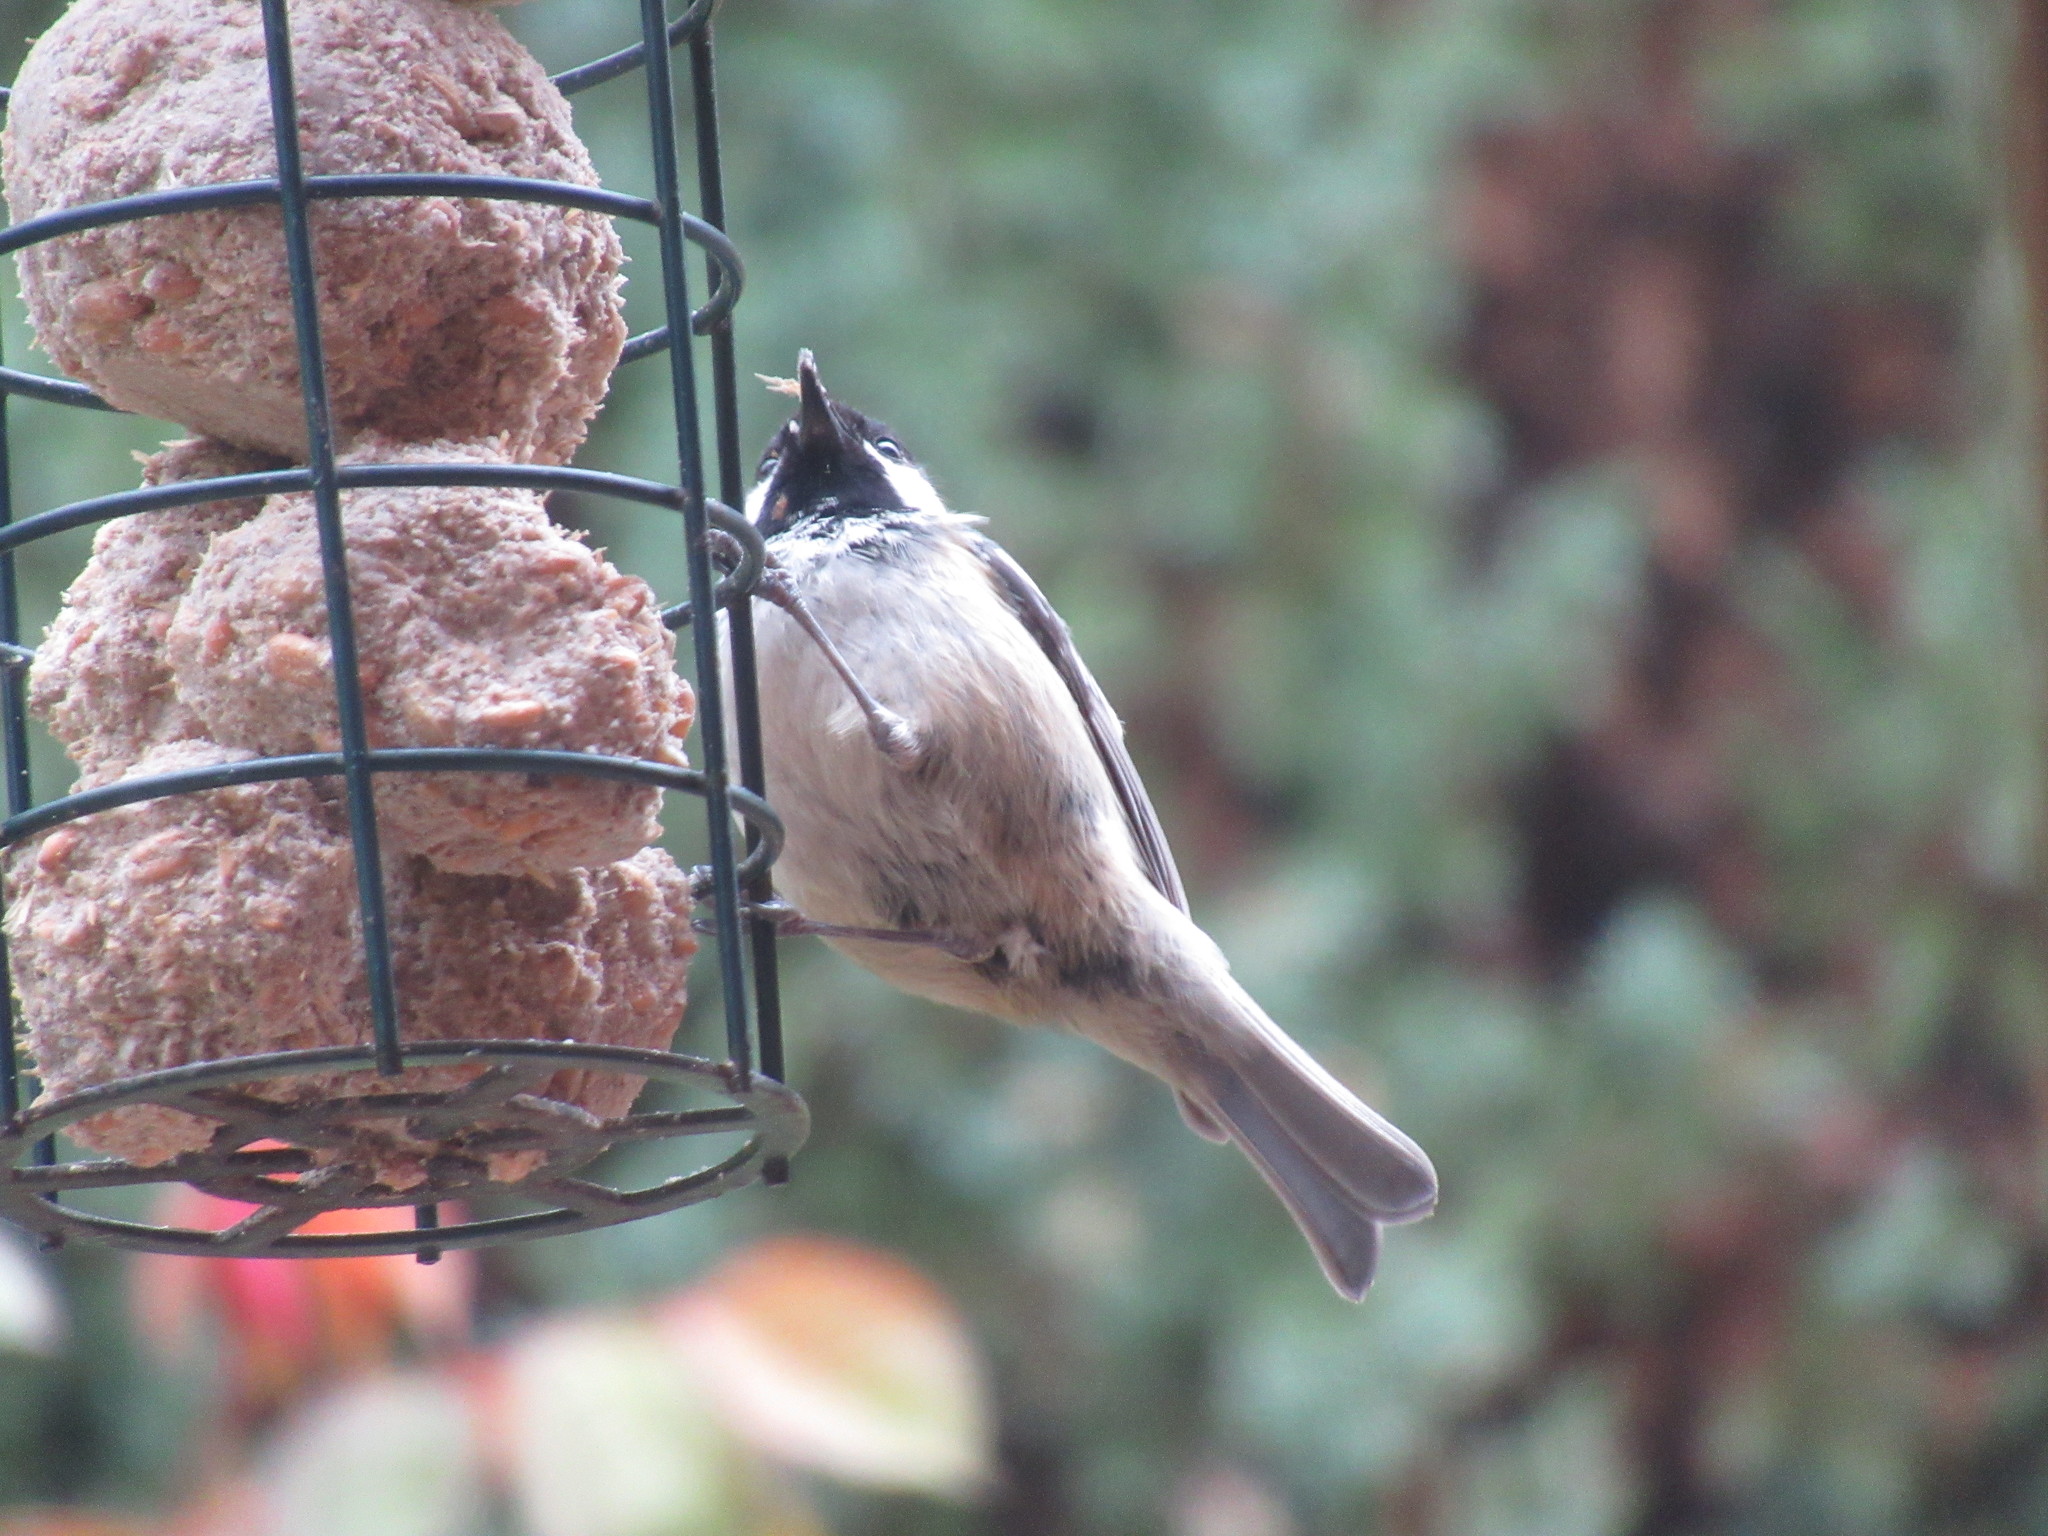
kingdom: Animalia
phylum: Chordata
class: Aves
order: Passeriformes
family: Paridae
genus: Periparus
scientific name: Periparus ater
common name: Coal tit
